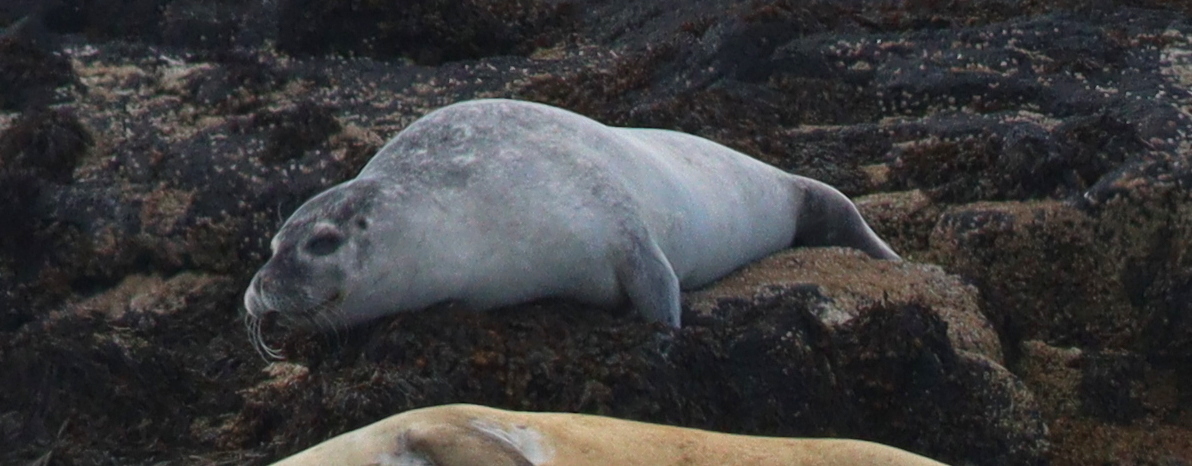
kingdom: Animalia
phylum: Chordata
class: Mammalia
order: Carnivora
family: Phocidae
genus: Phoca
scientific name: Phoca vitulina
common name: Harbor seal
